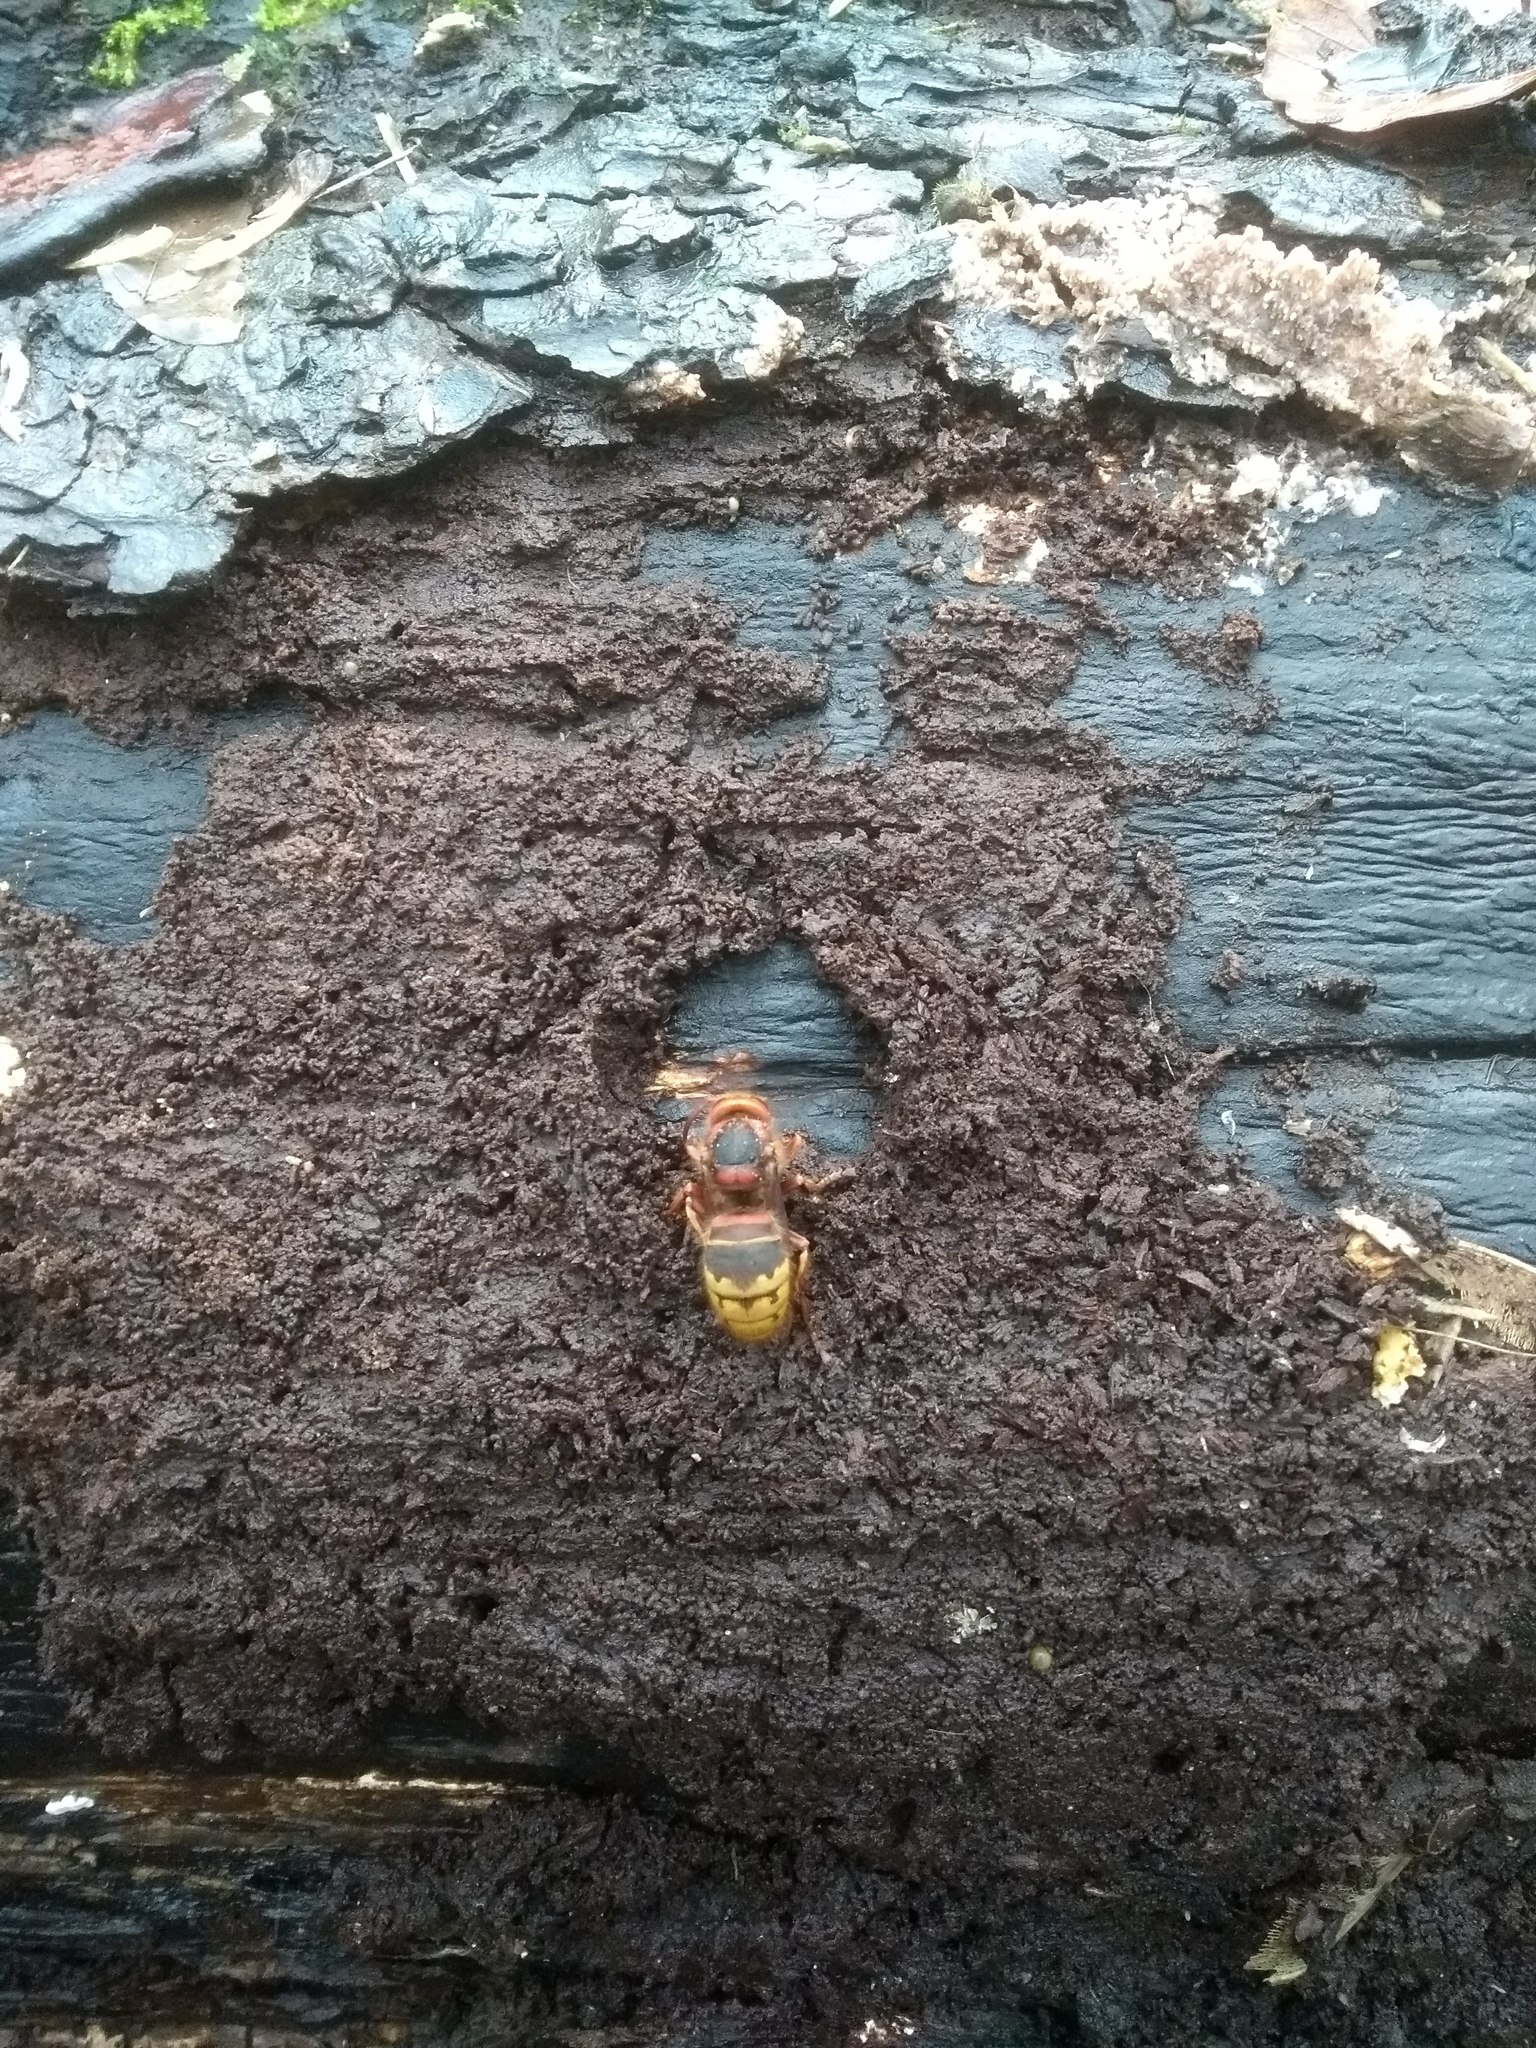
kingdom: Animalia
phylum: Arthropoda
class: Insecta
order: Hymenoptera
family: Vespidae
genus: Vespa
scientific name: Vespa crabro
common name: Hornet
